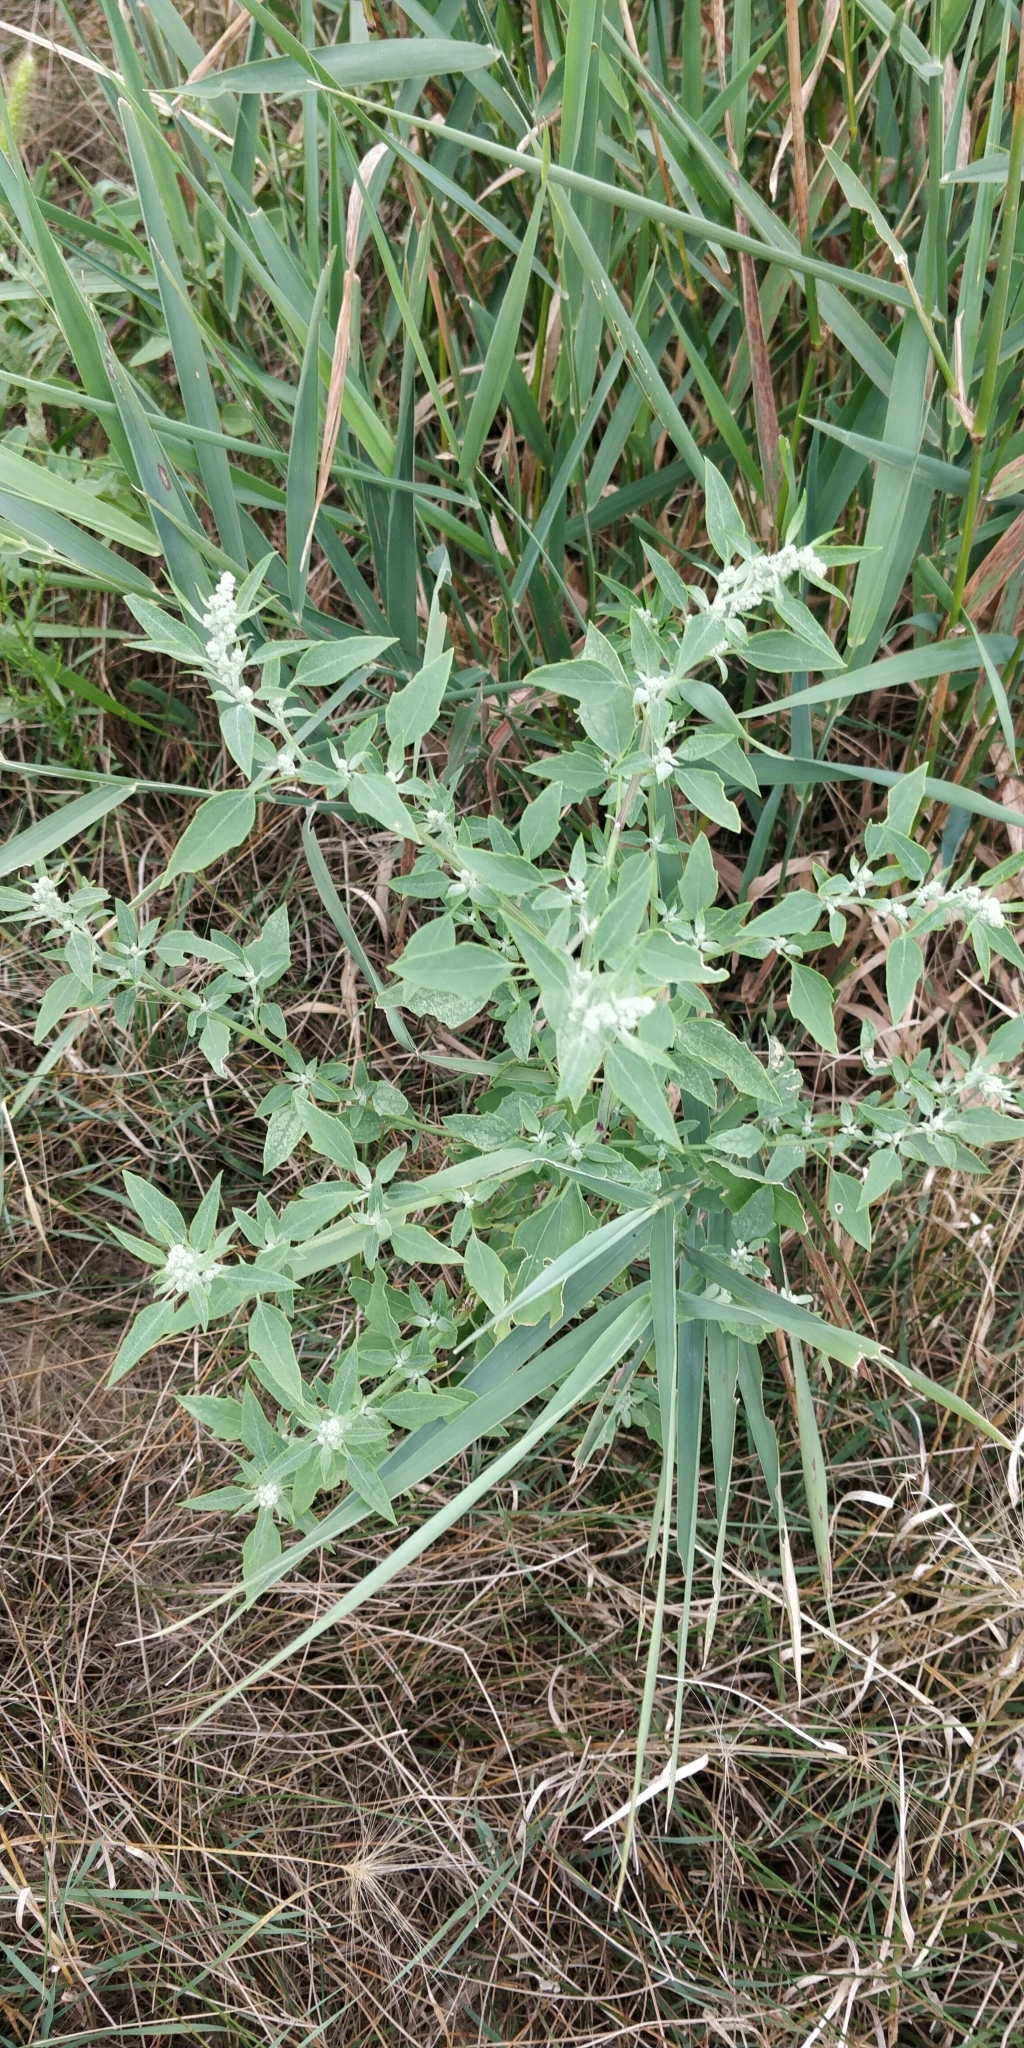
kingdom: Plantae
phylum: Tracheophyta
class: Magnoliopsida
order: Caryophyllales
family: Amaranthaceae
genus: Chenopodium
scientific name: Chenopodium album
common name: Fat-hen
